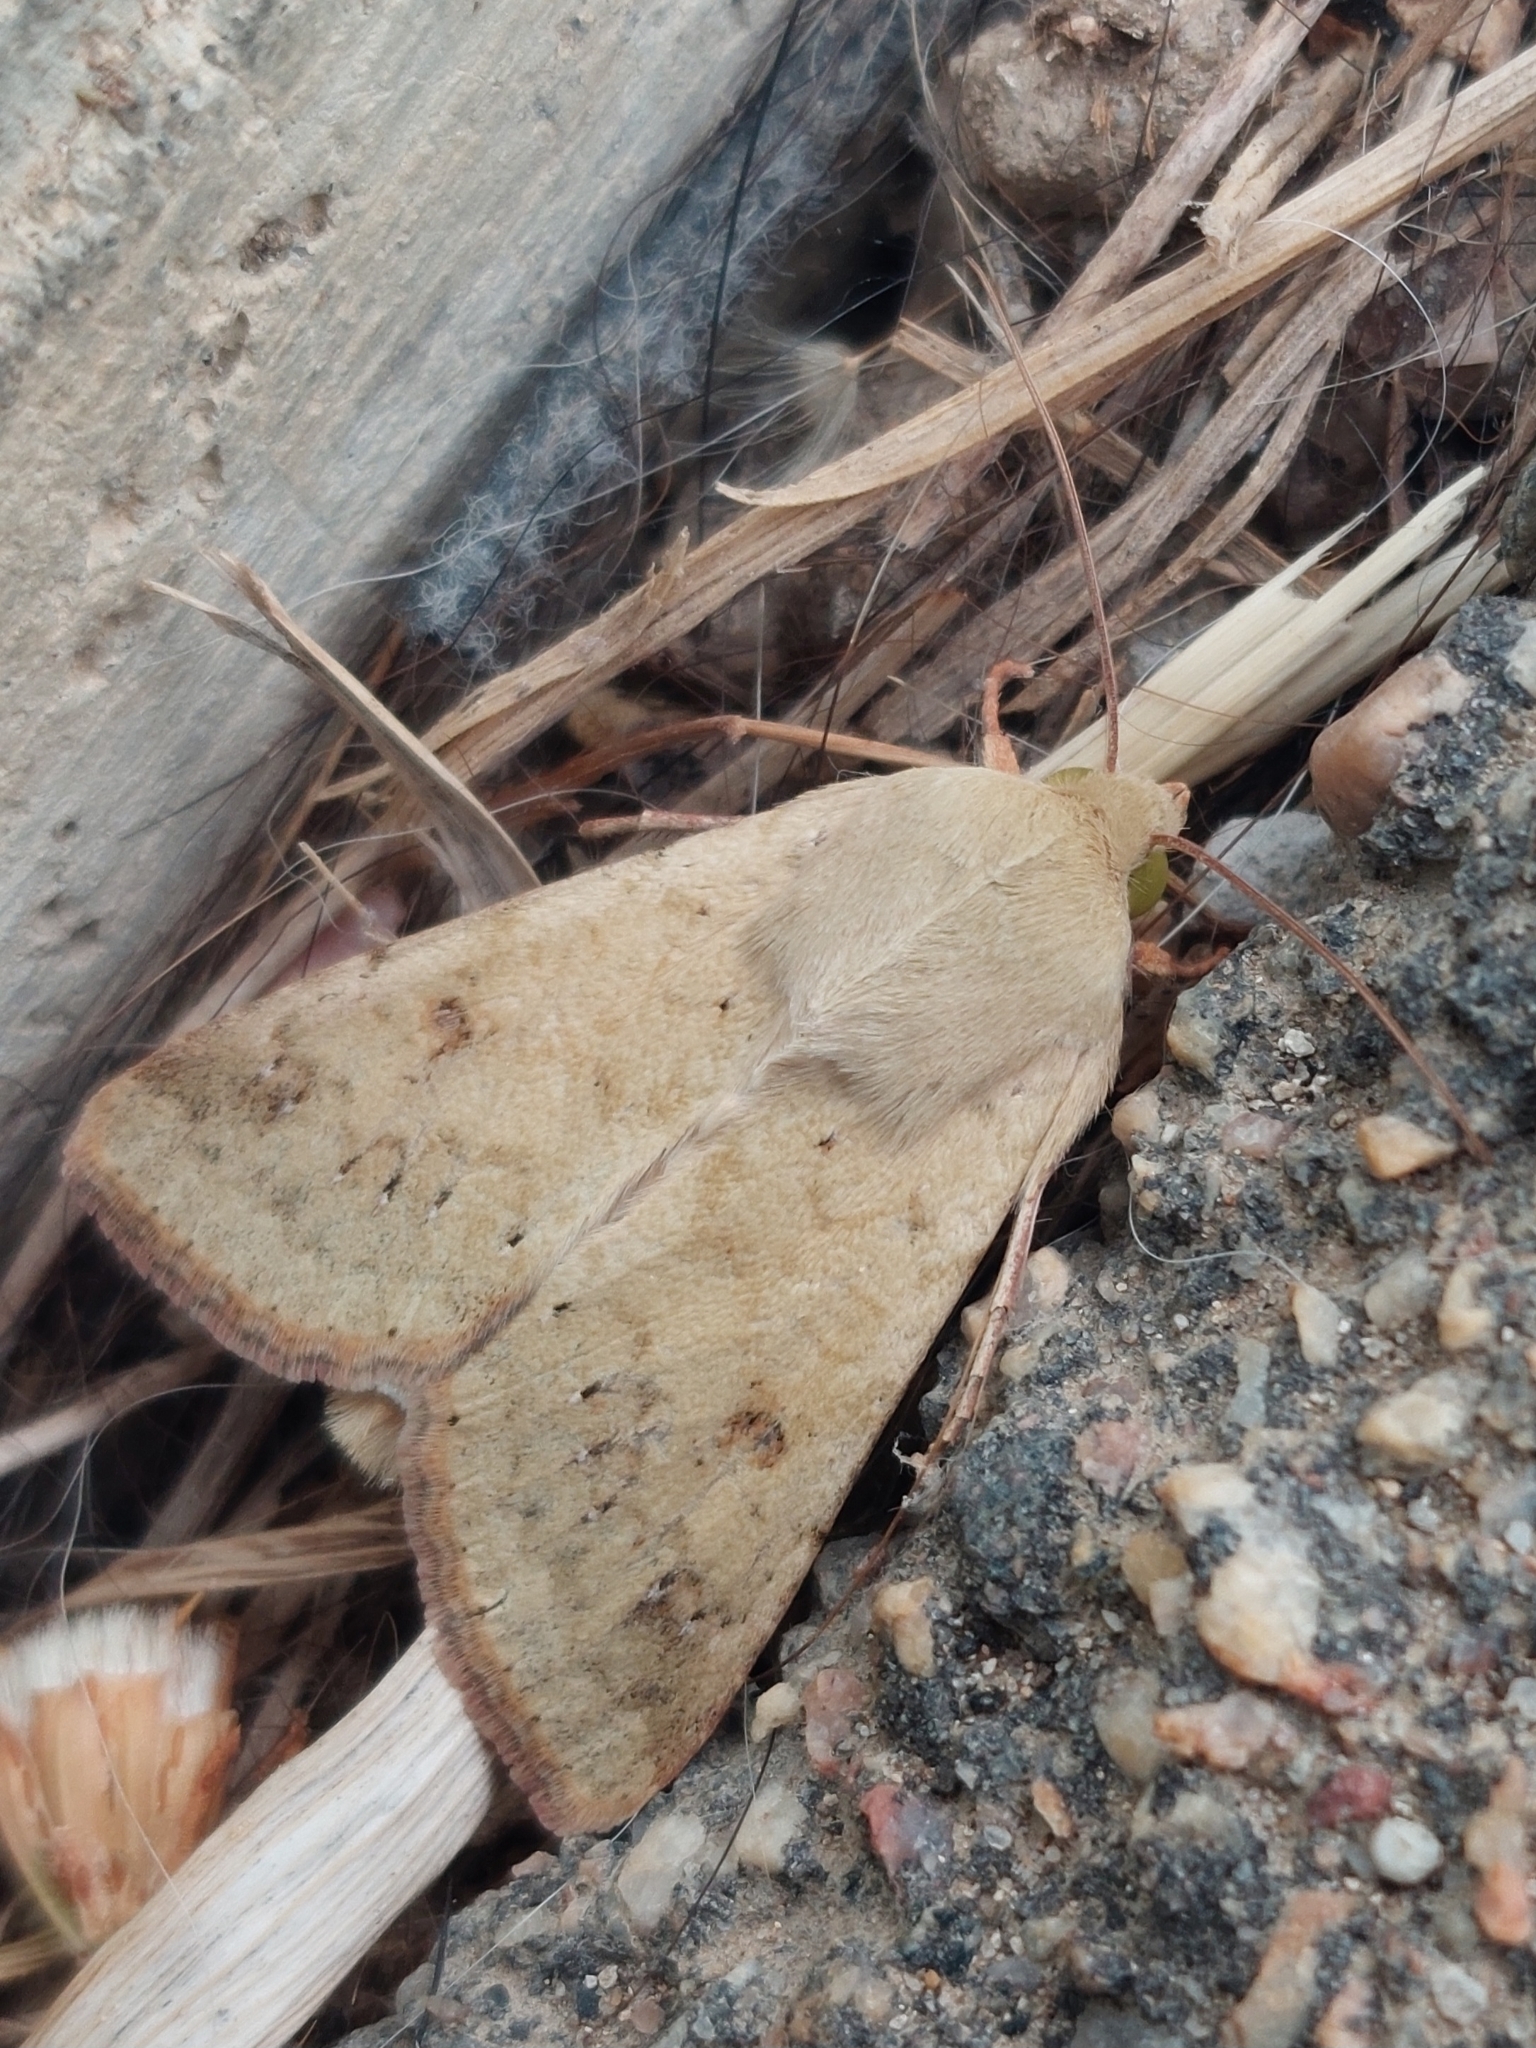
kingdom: Animalia
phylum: Arthropoda
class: Insecta
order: Lepidoptera
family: Noctuidae
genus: Helicoverpa
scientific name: Helicoverpa zea
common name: Bollworm
